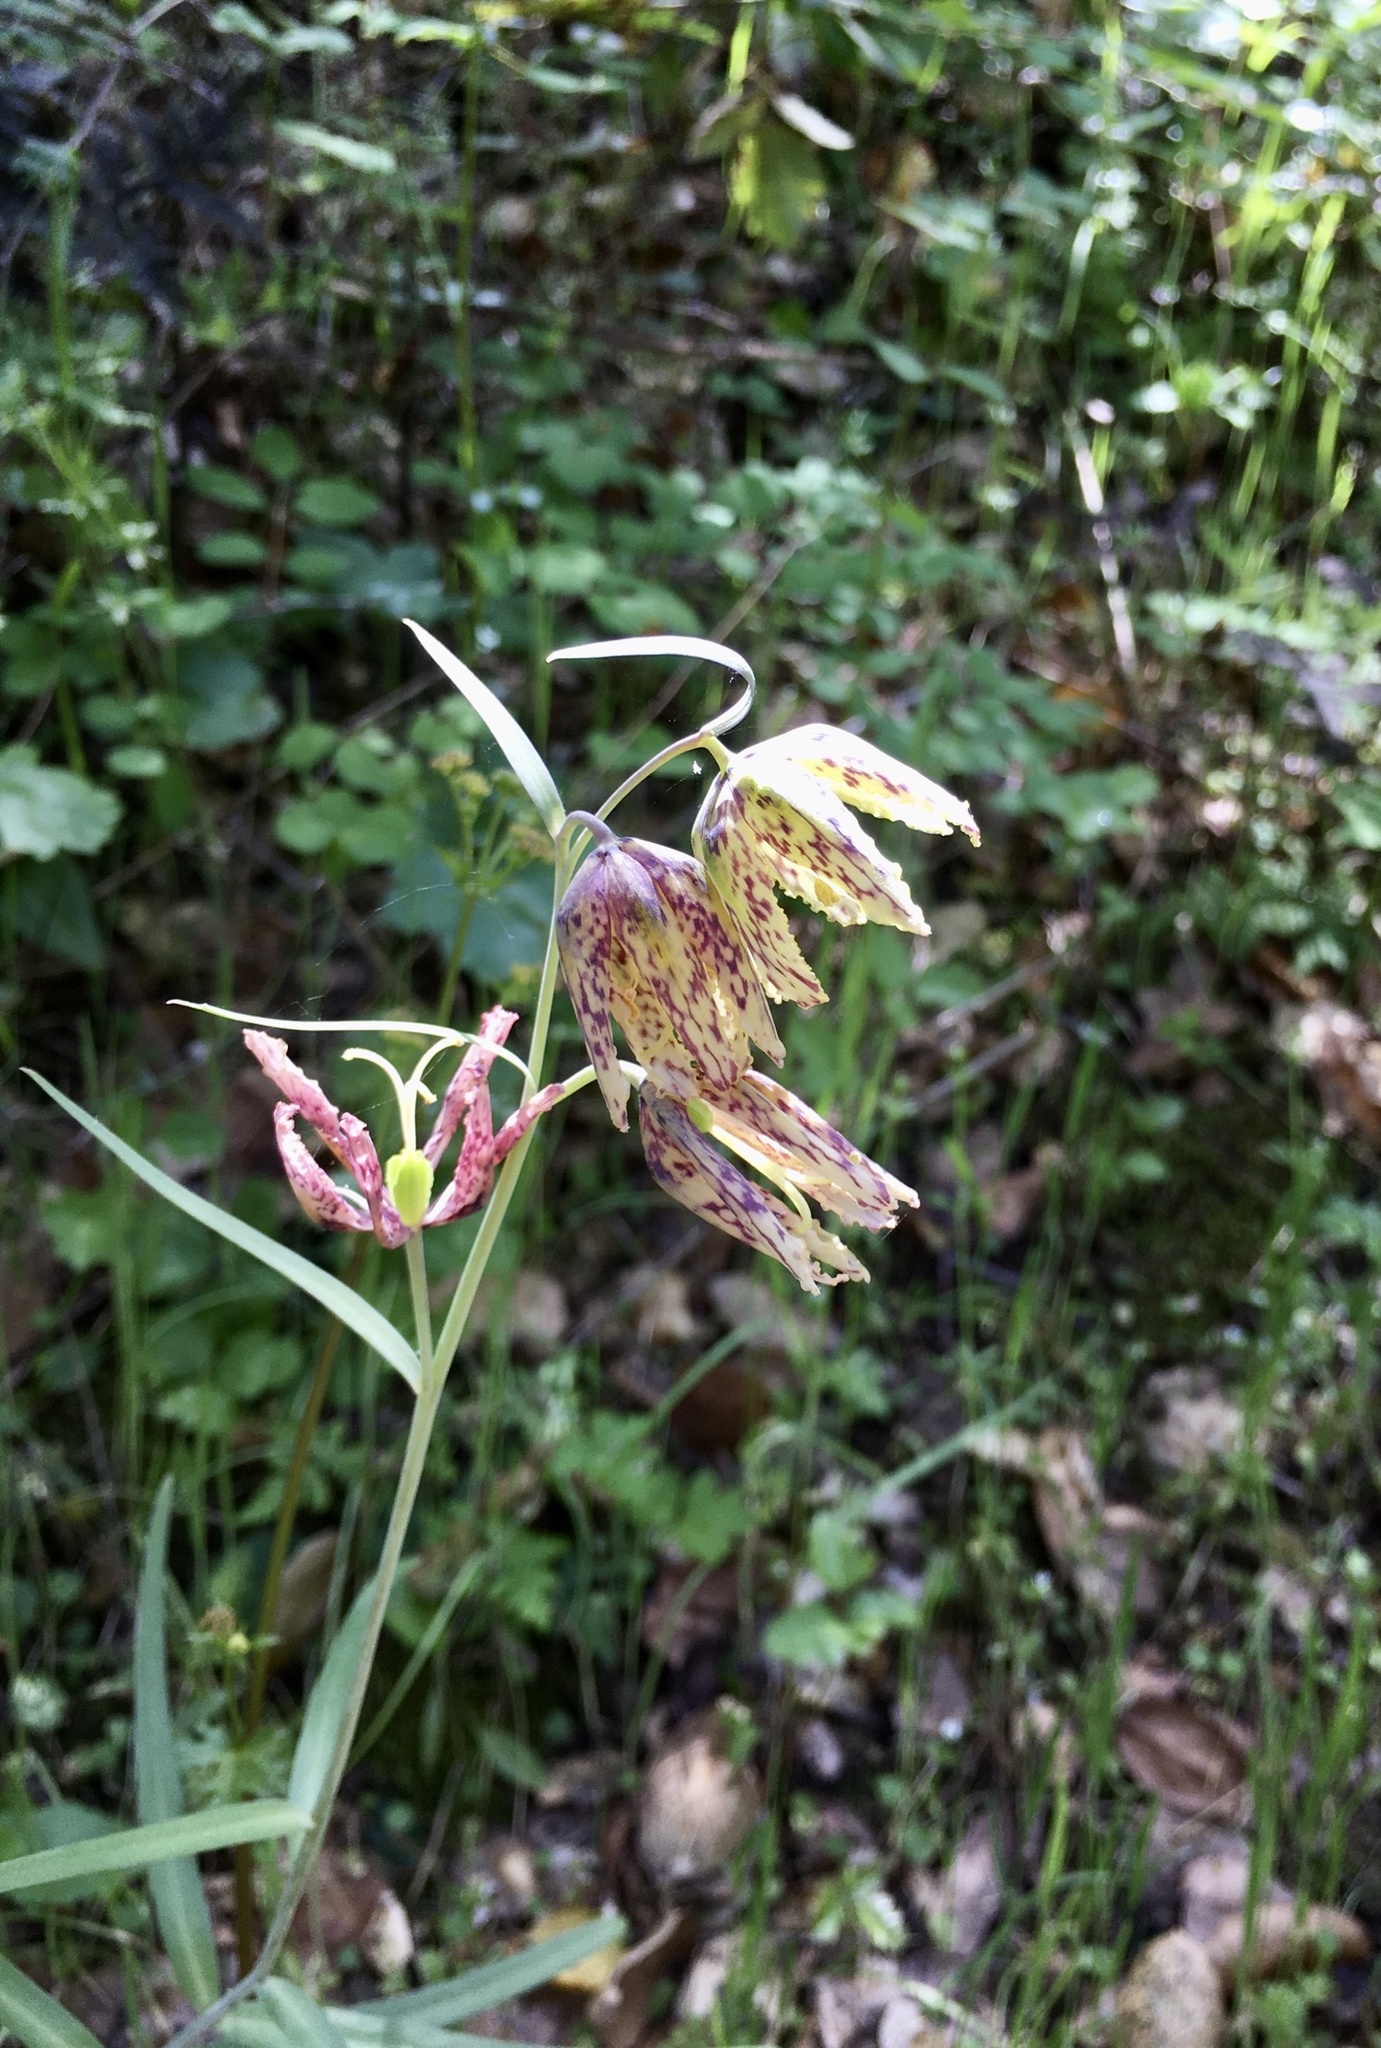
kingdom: Plantae
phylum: Tracheophyta
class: Liliopsida
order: Liliales
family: Liliaceae
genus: Fritillaria
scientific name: Fritillaria affinis
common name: Ojai fritillary
